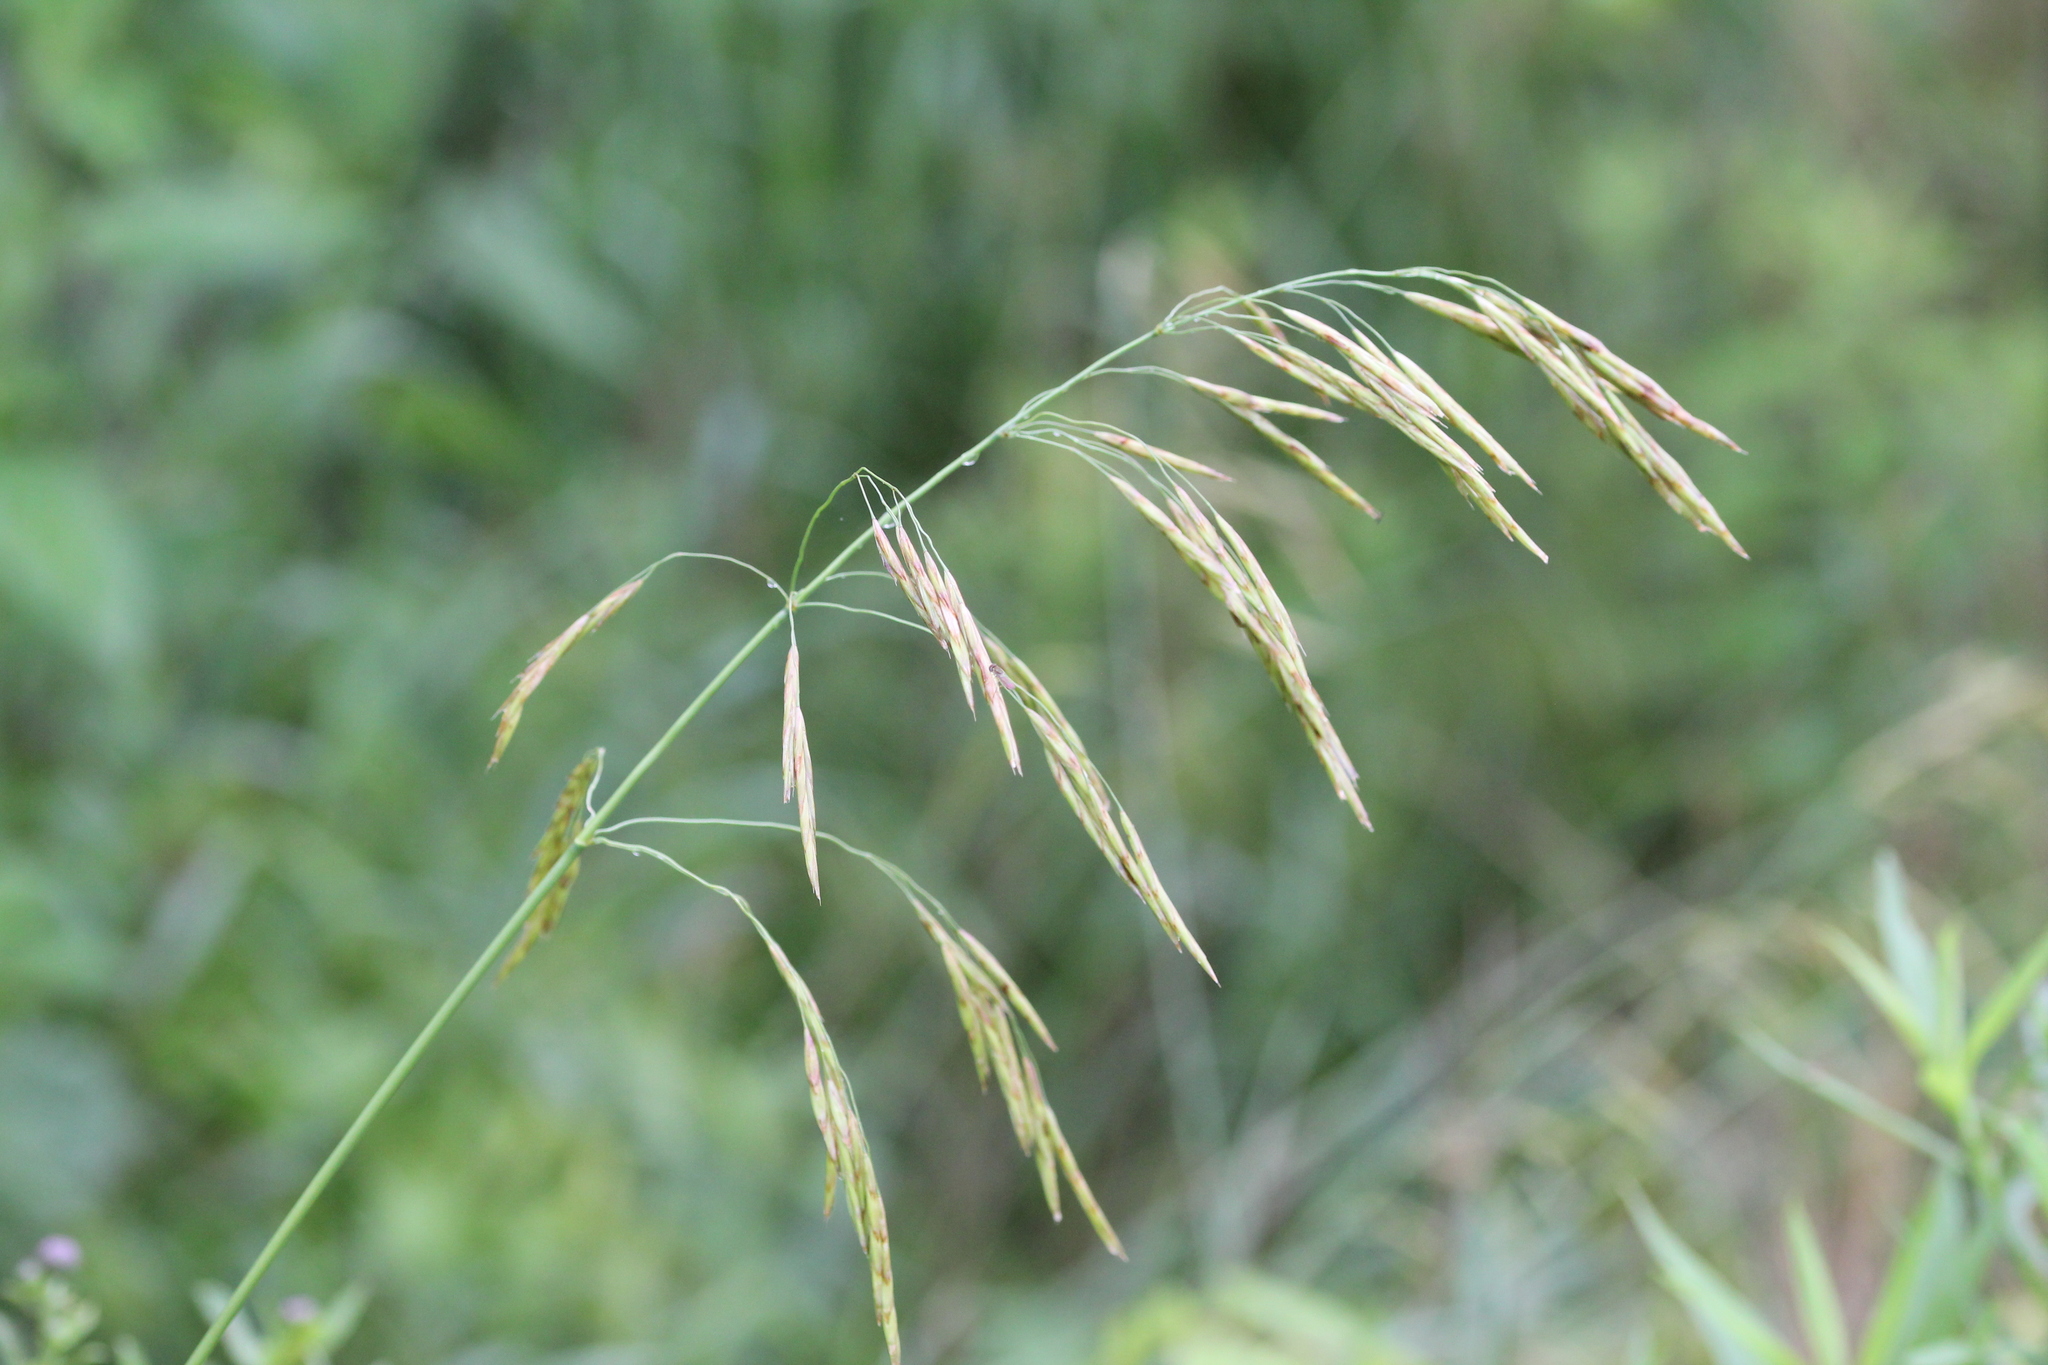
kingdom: Plantae
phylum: Tracheophyta
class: Liliopsida
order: Poales
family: Poaceae
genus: Bromus
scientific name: Bromus inermis
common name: Smooth brome
